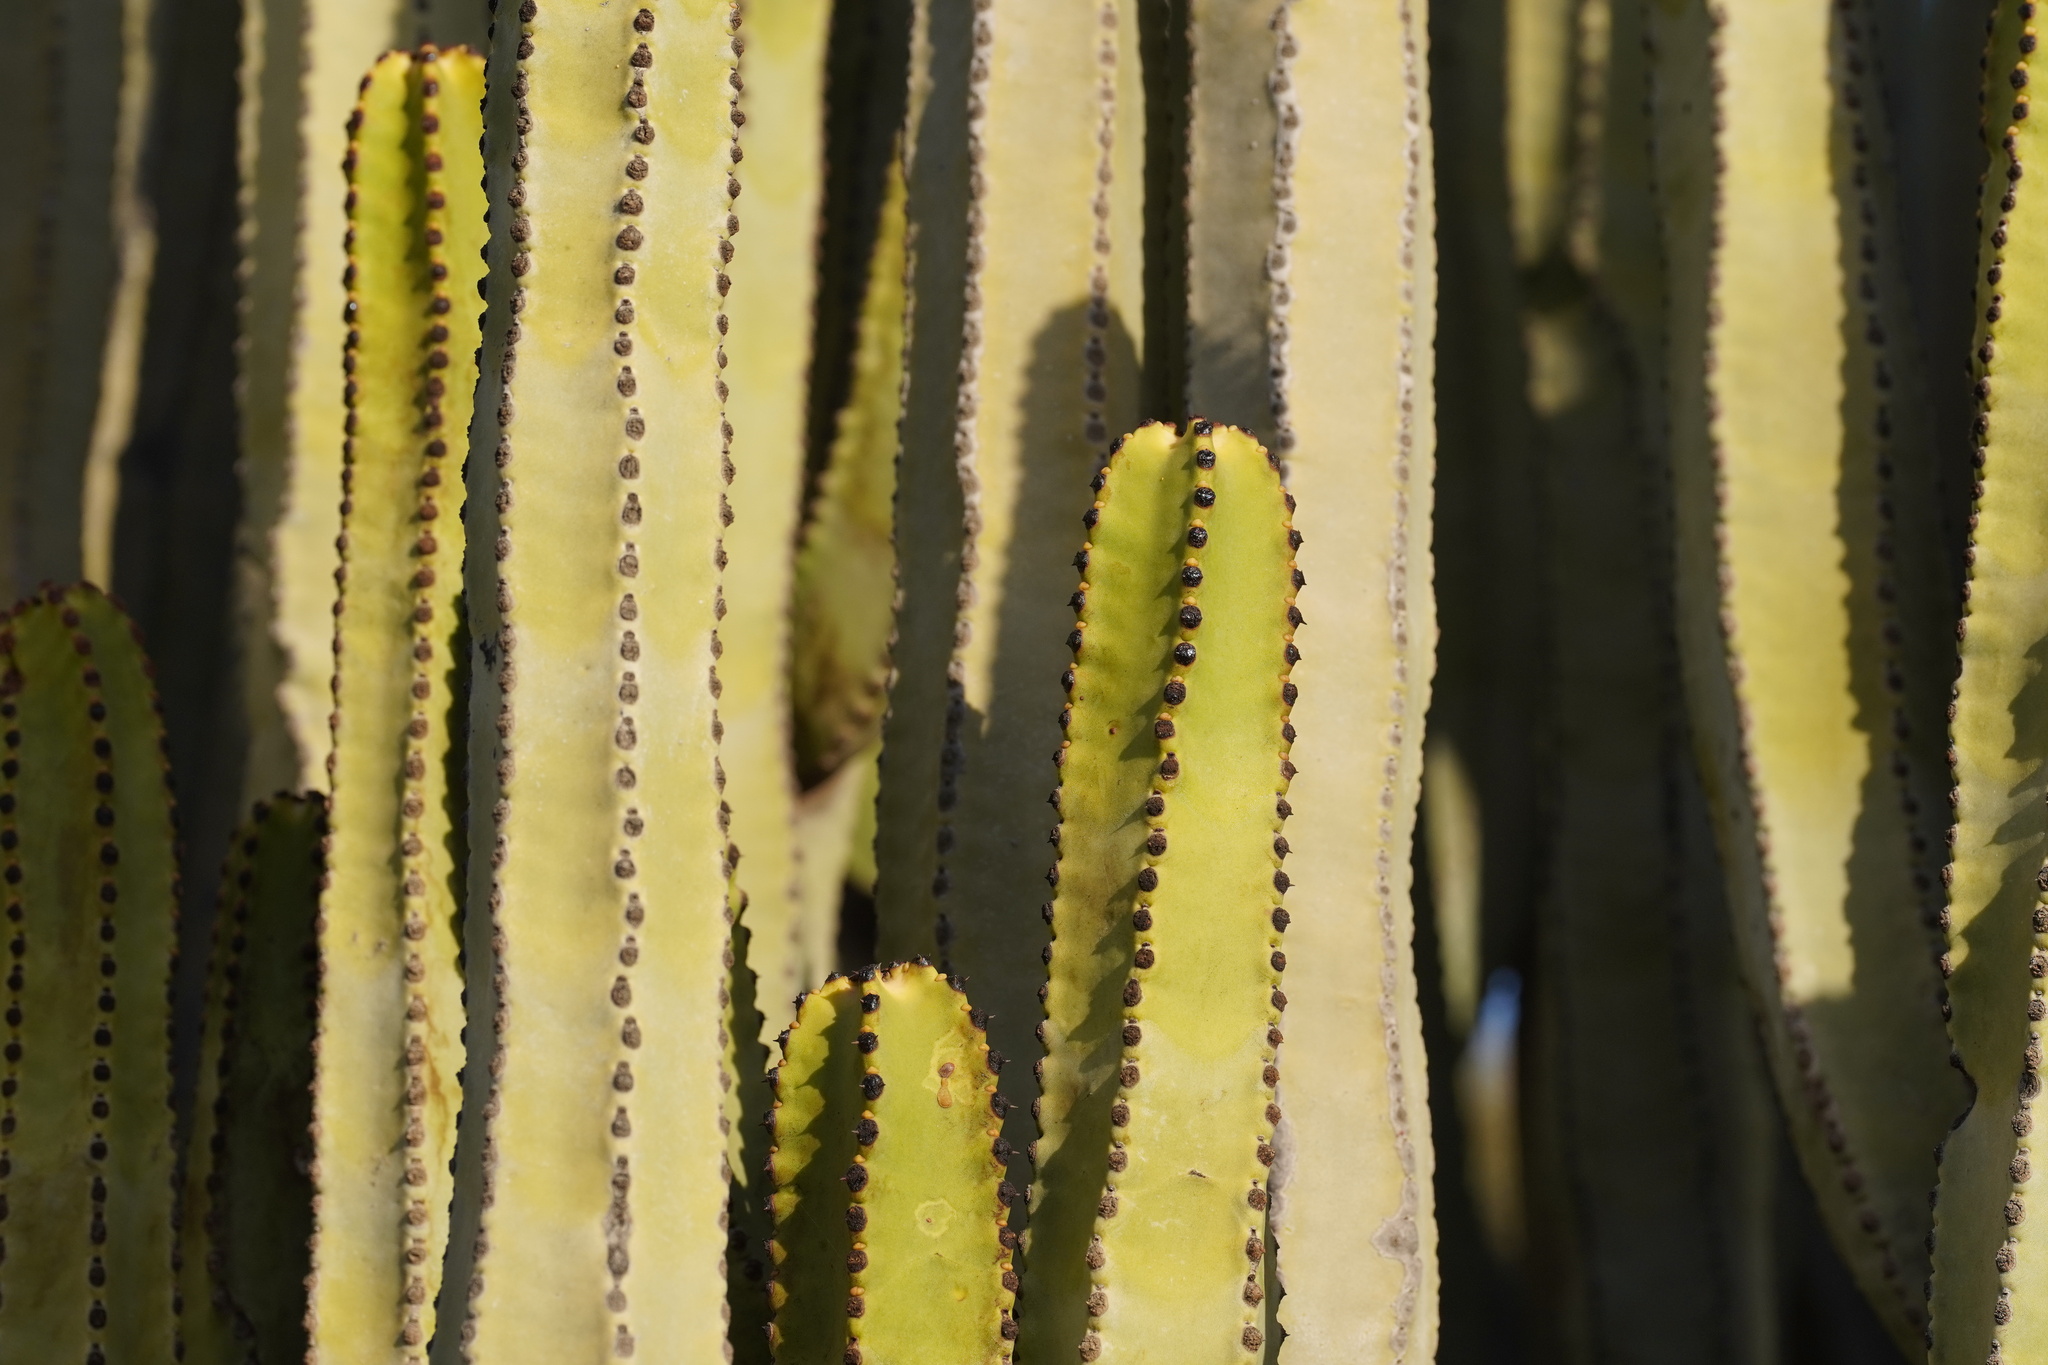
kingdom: Plantae
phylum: Tracheophyta
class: Magnoliopsida
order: Malpighiales
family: Euphorbiaceae
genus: Euphorbia
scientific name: Euphorbia canariensis
